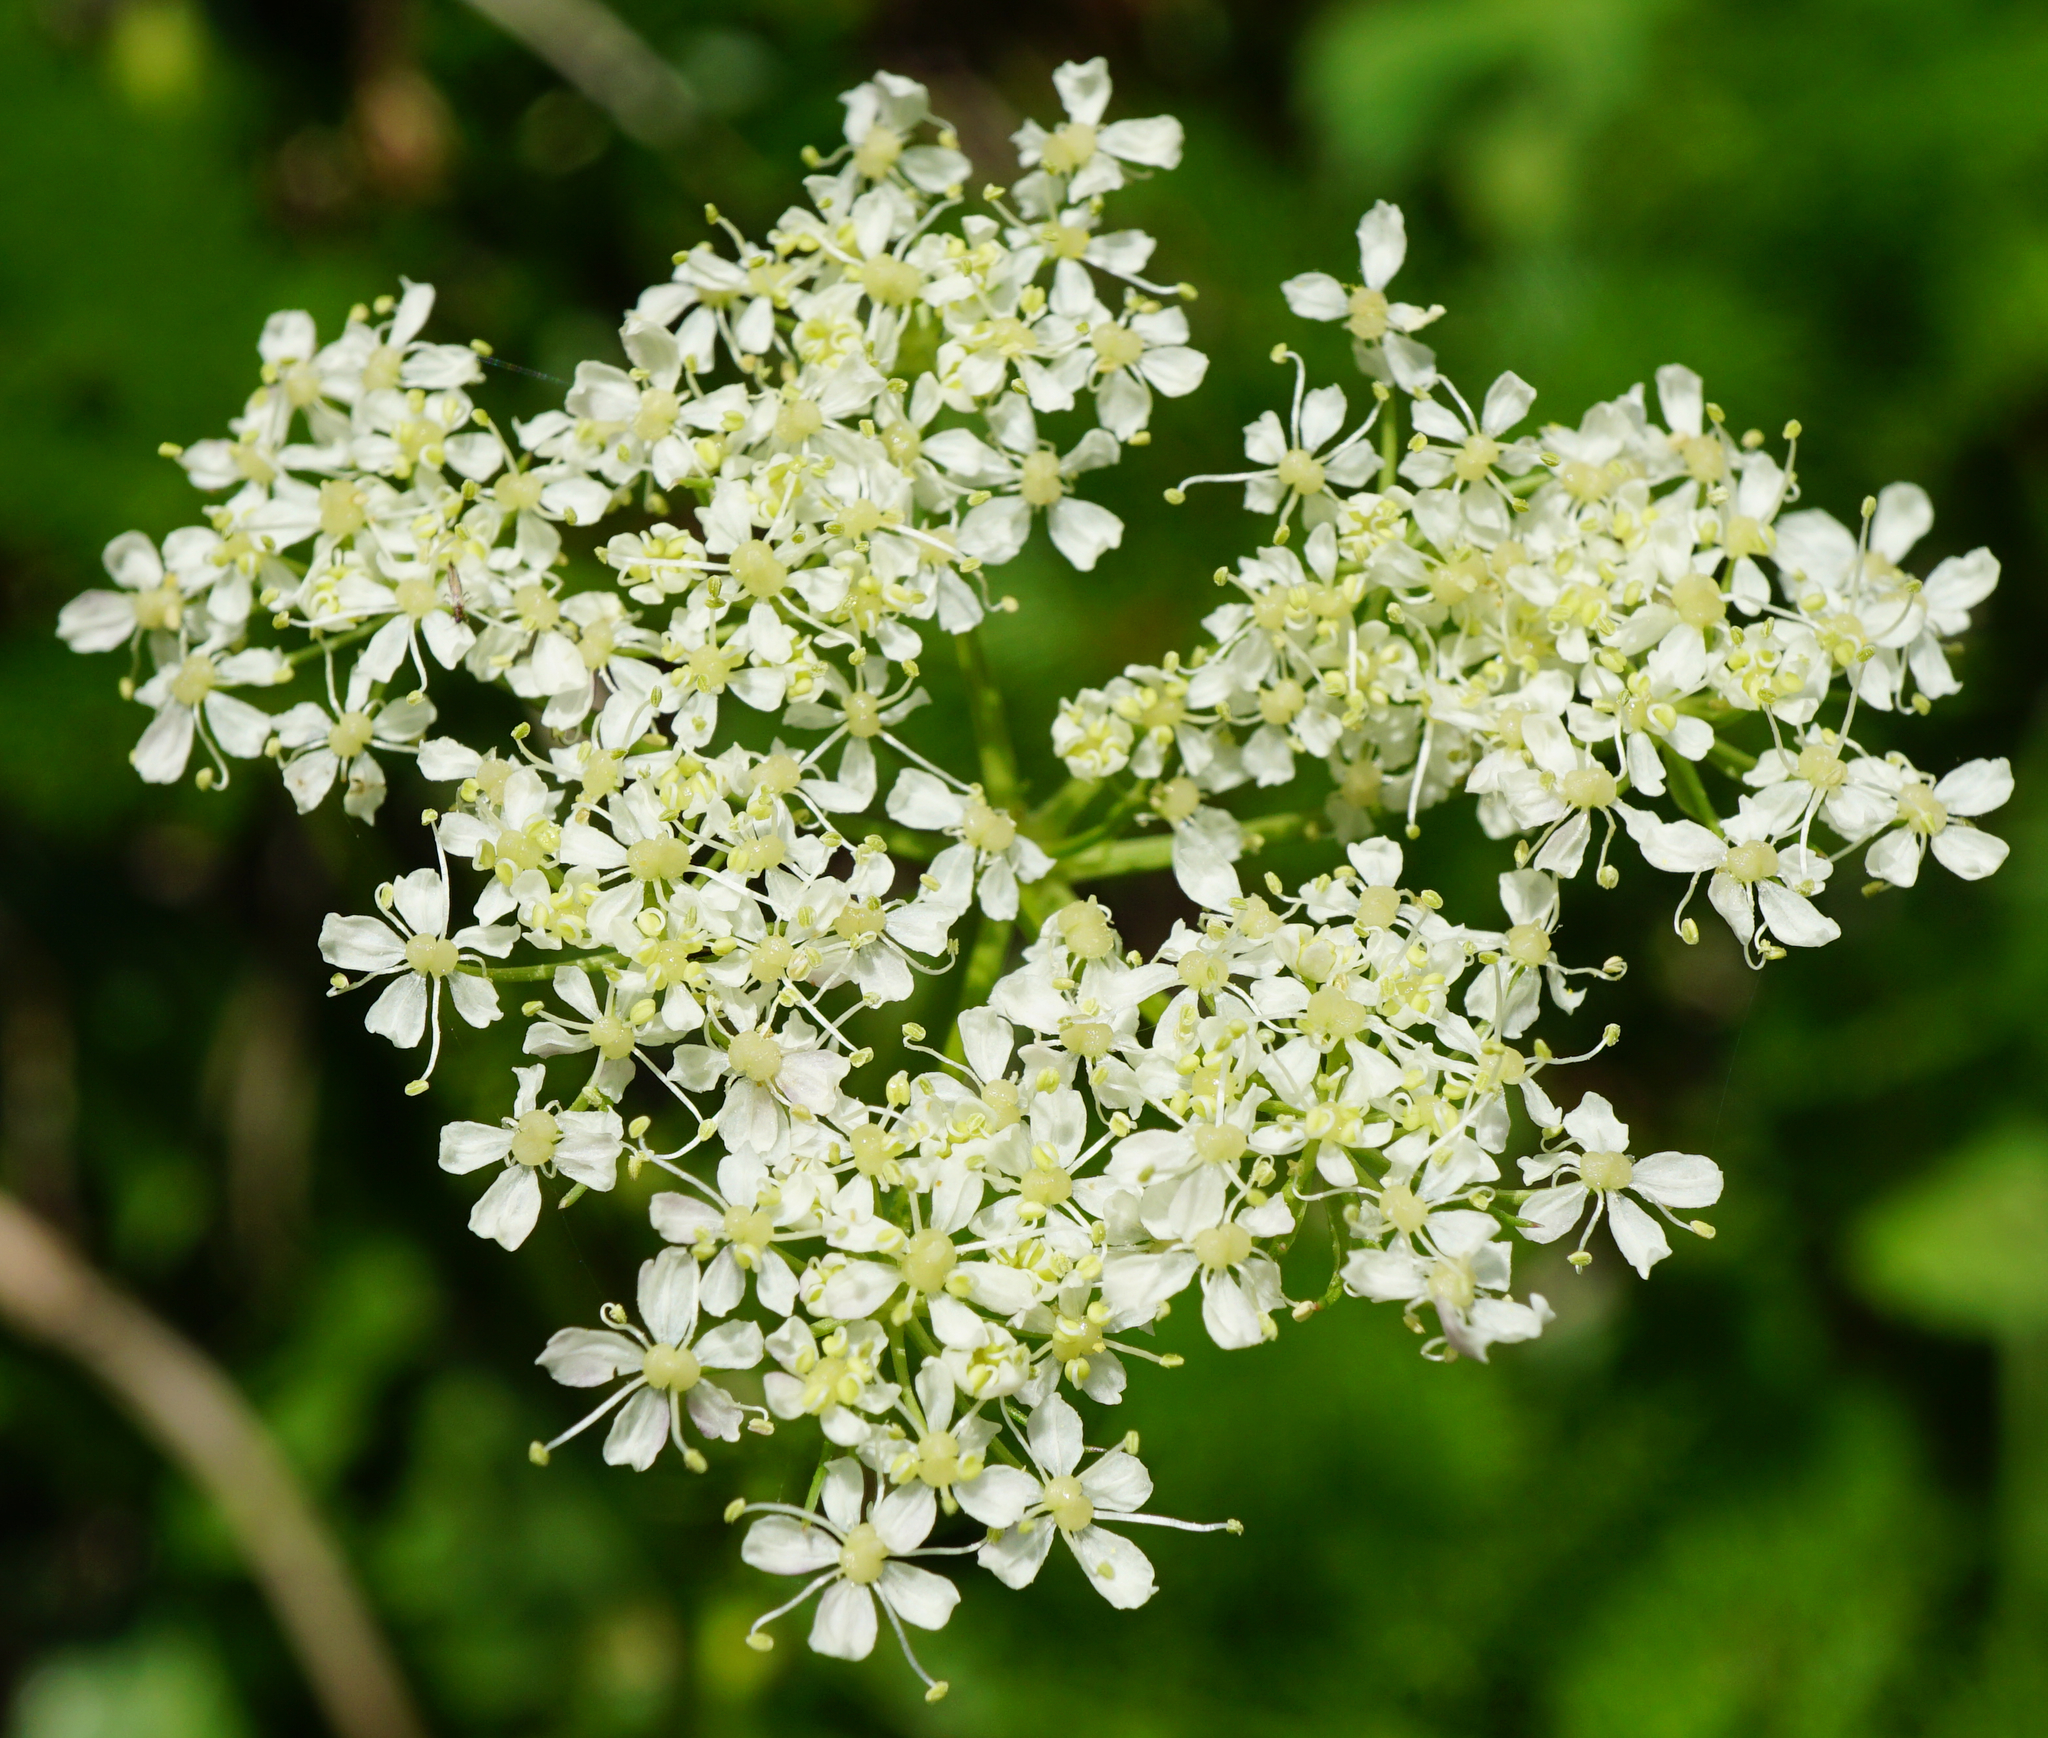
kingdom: Plantae
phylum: Tracheophyta
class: Magnoliopsida
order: Apiales
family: Apiaceae
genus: Meum
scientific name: Meum athamanticum
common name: Spignel
